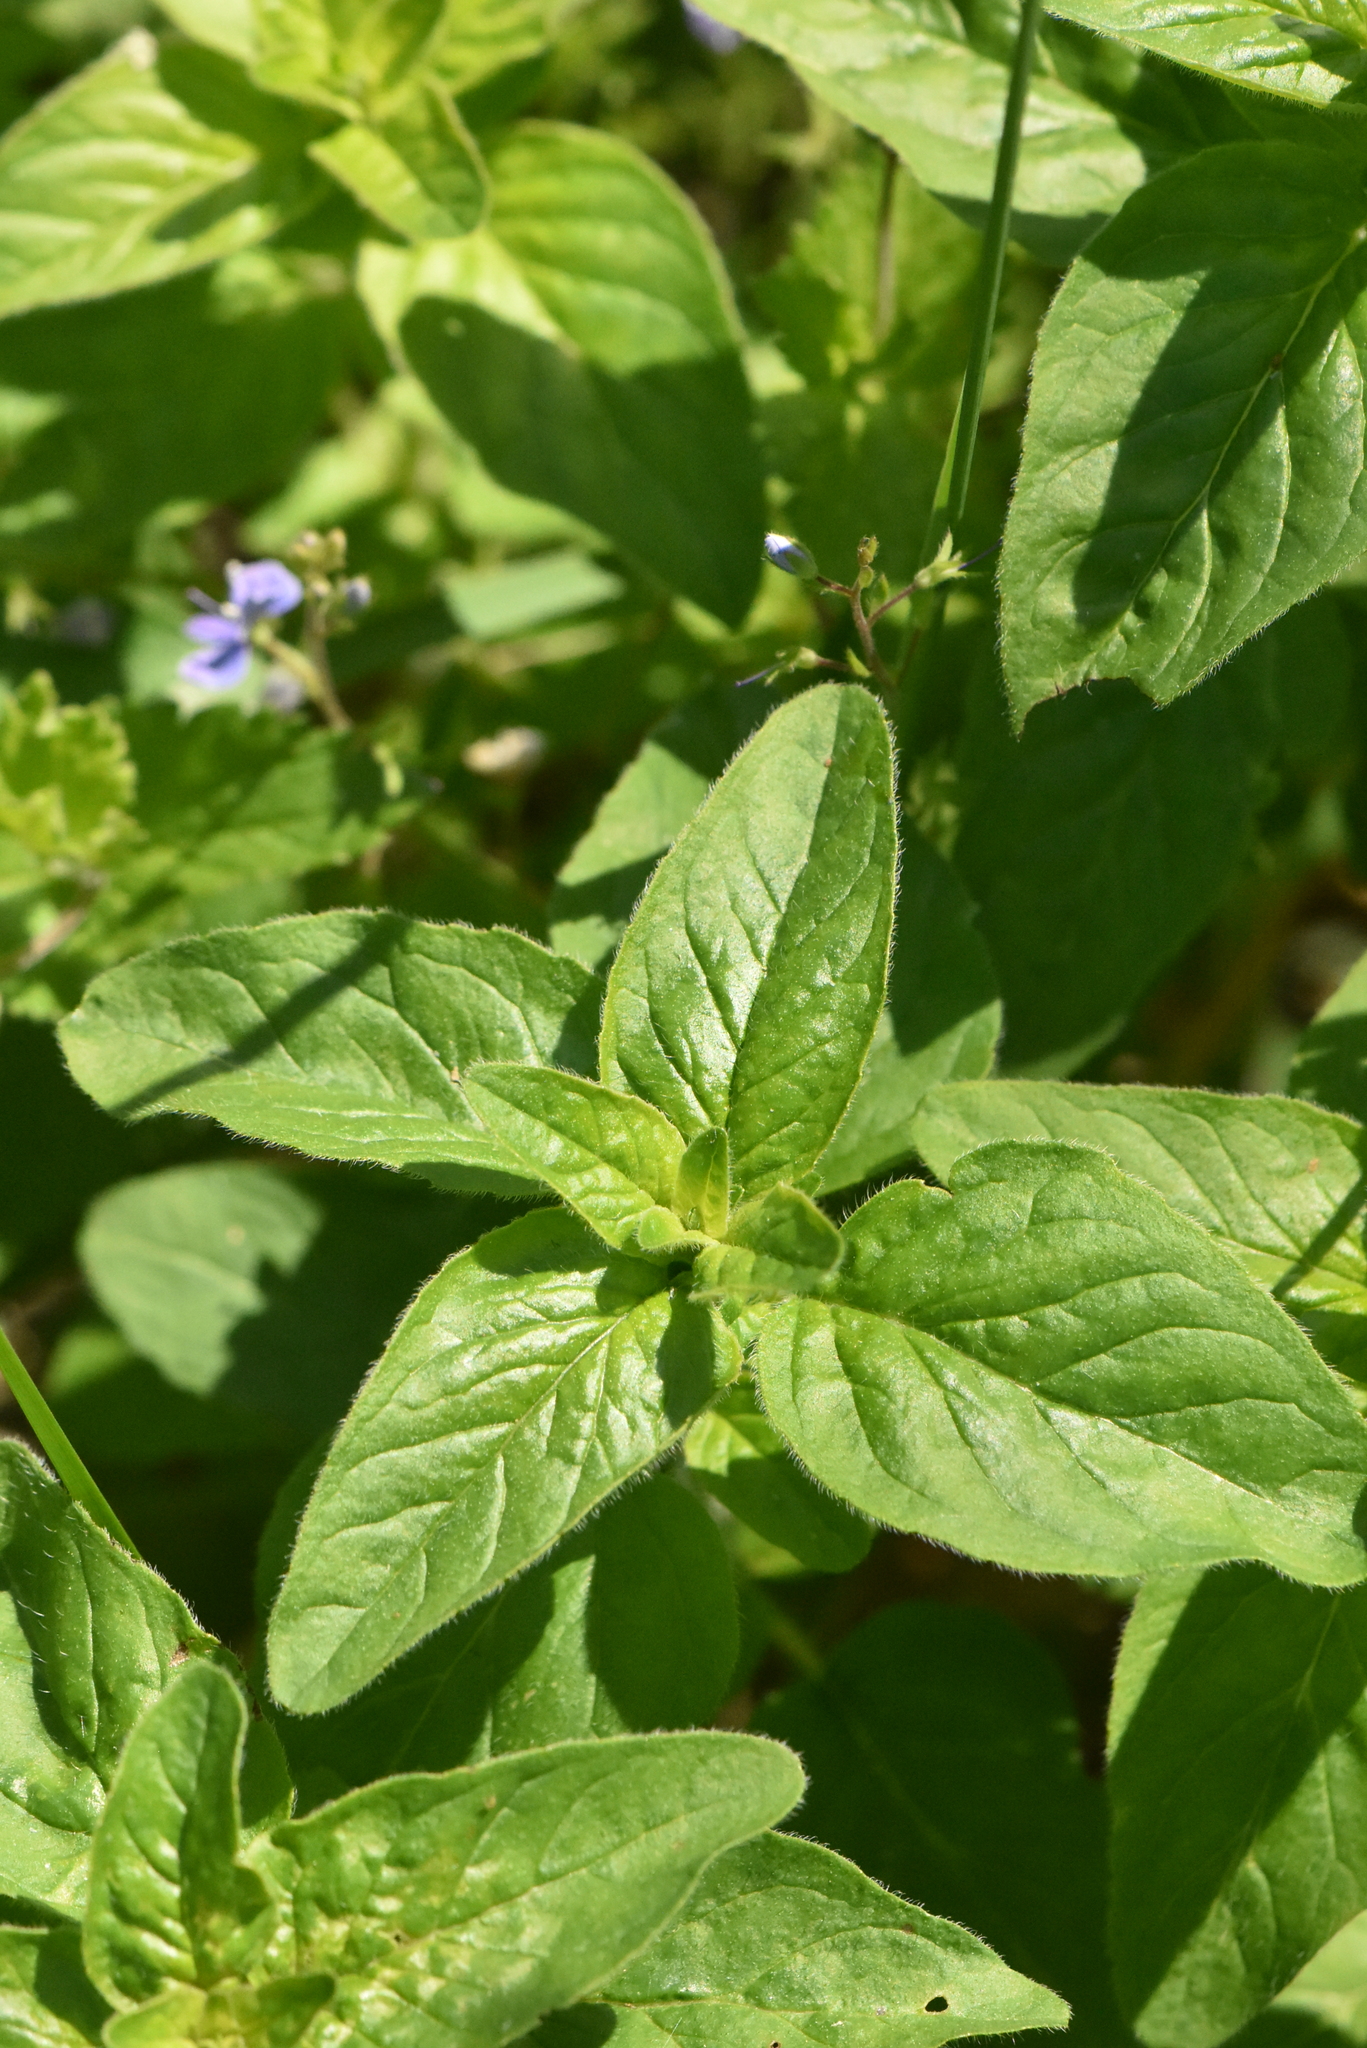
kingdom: Plantae
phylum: Tracheophyta
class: Magnoliopsida
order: Lamiales
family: Lamiaceae
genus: Mentha
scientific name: Mentha arvensis
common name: Corn mint
